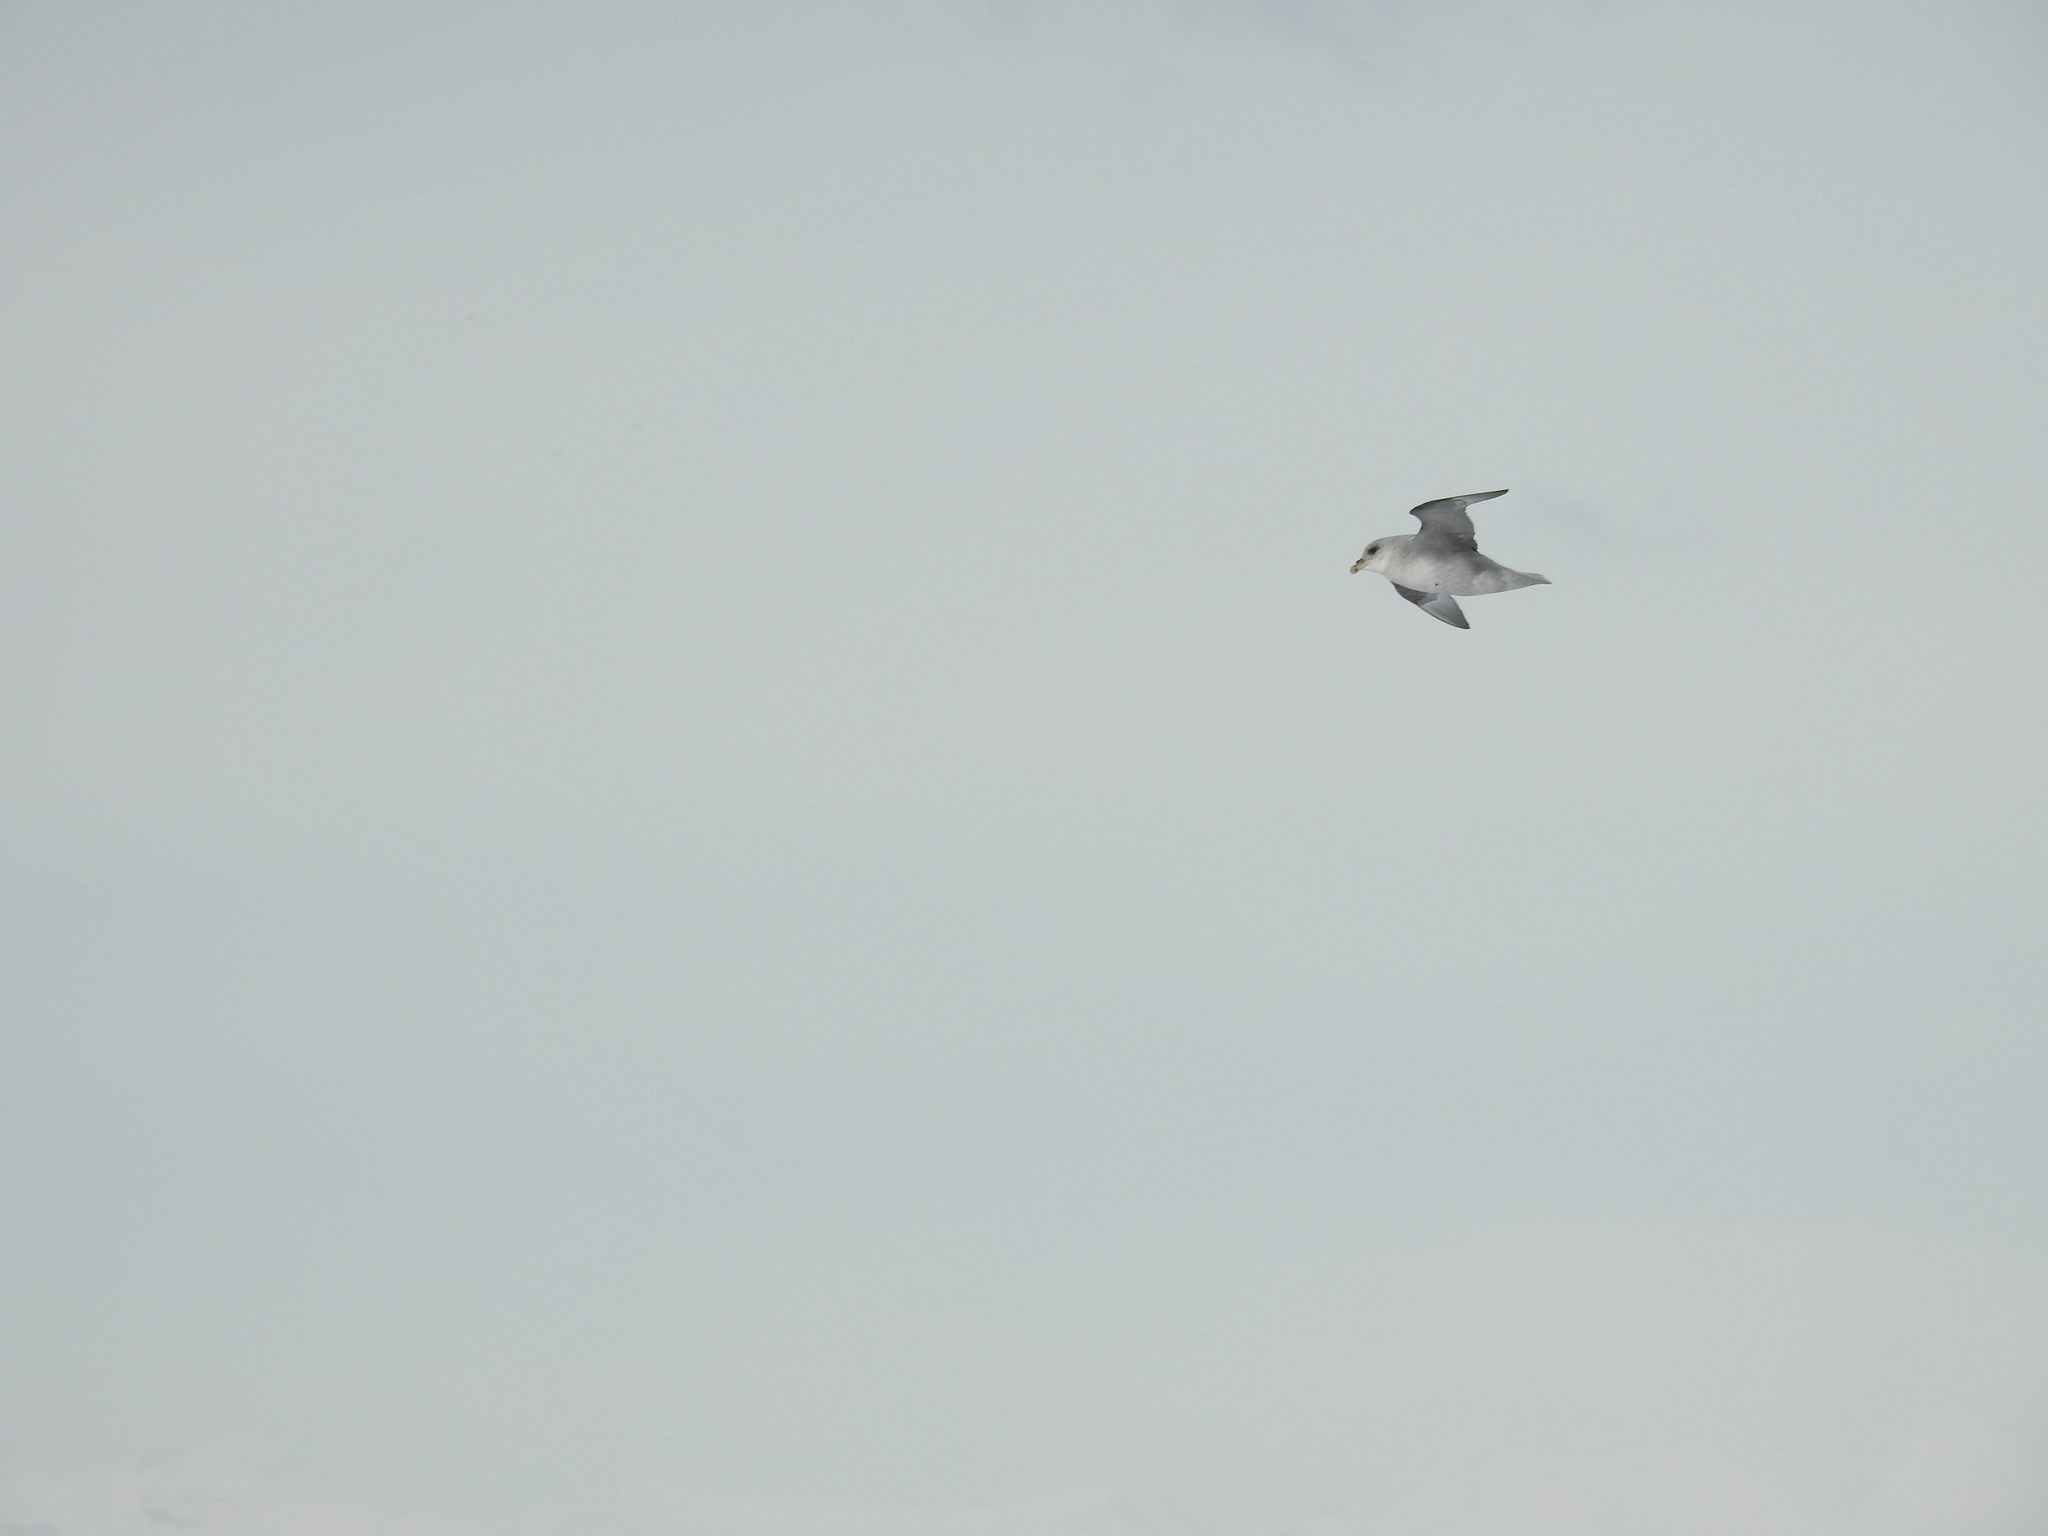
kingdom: Animalia
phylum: Chordata
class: Aves
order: Procellariiformes
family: Procellariidae
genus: Fulmarus
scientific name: Fulmarus glacialis
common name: Northern fulmar
